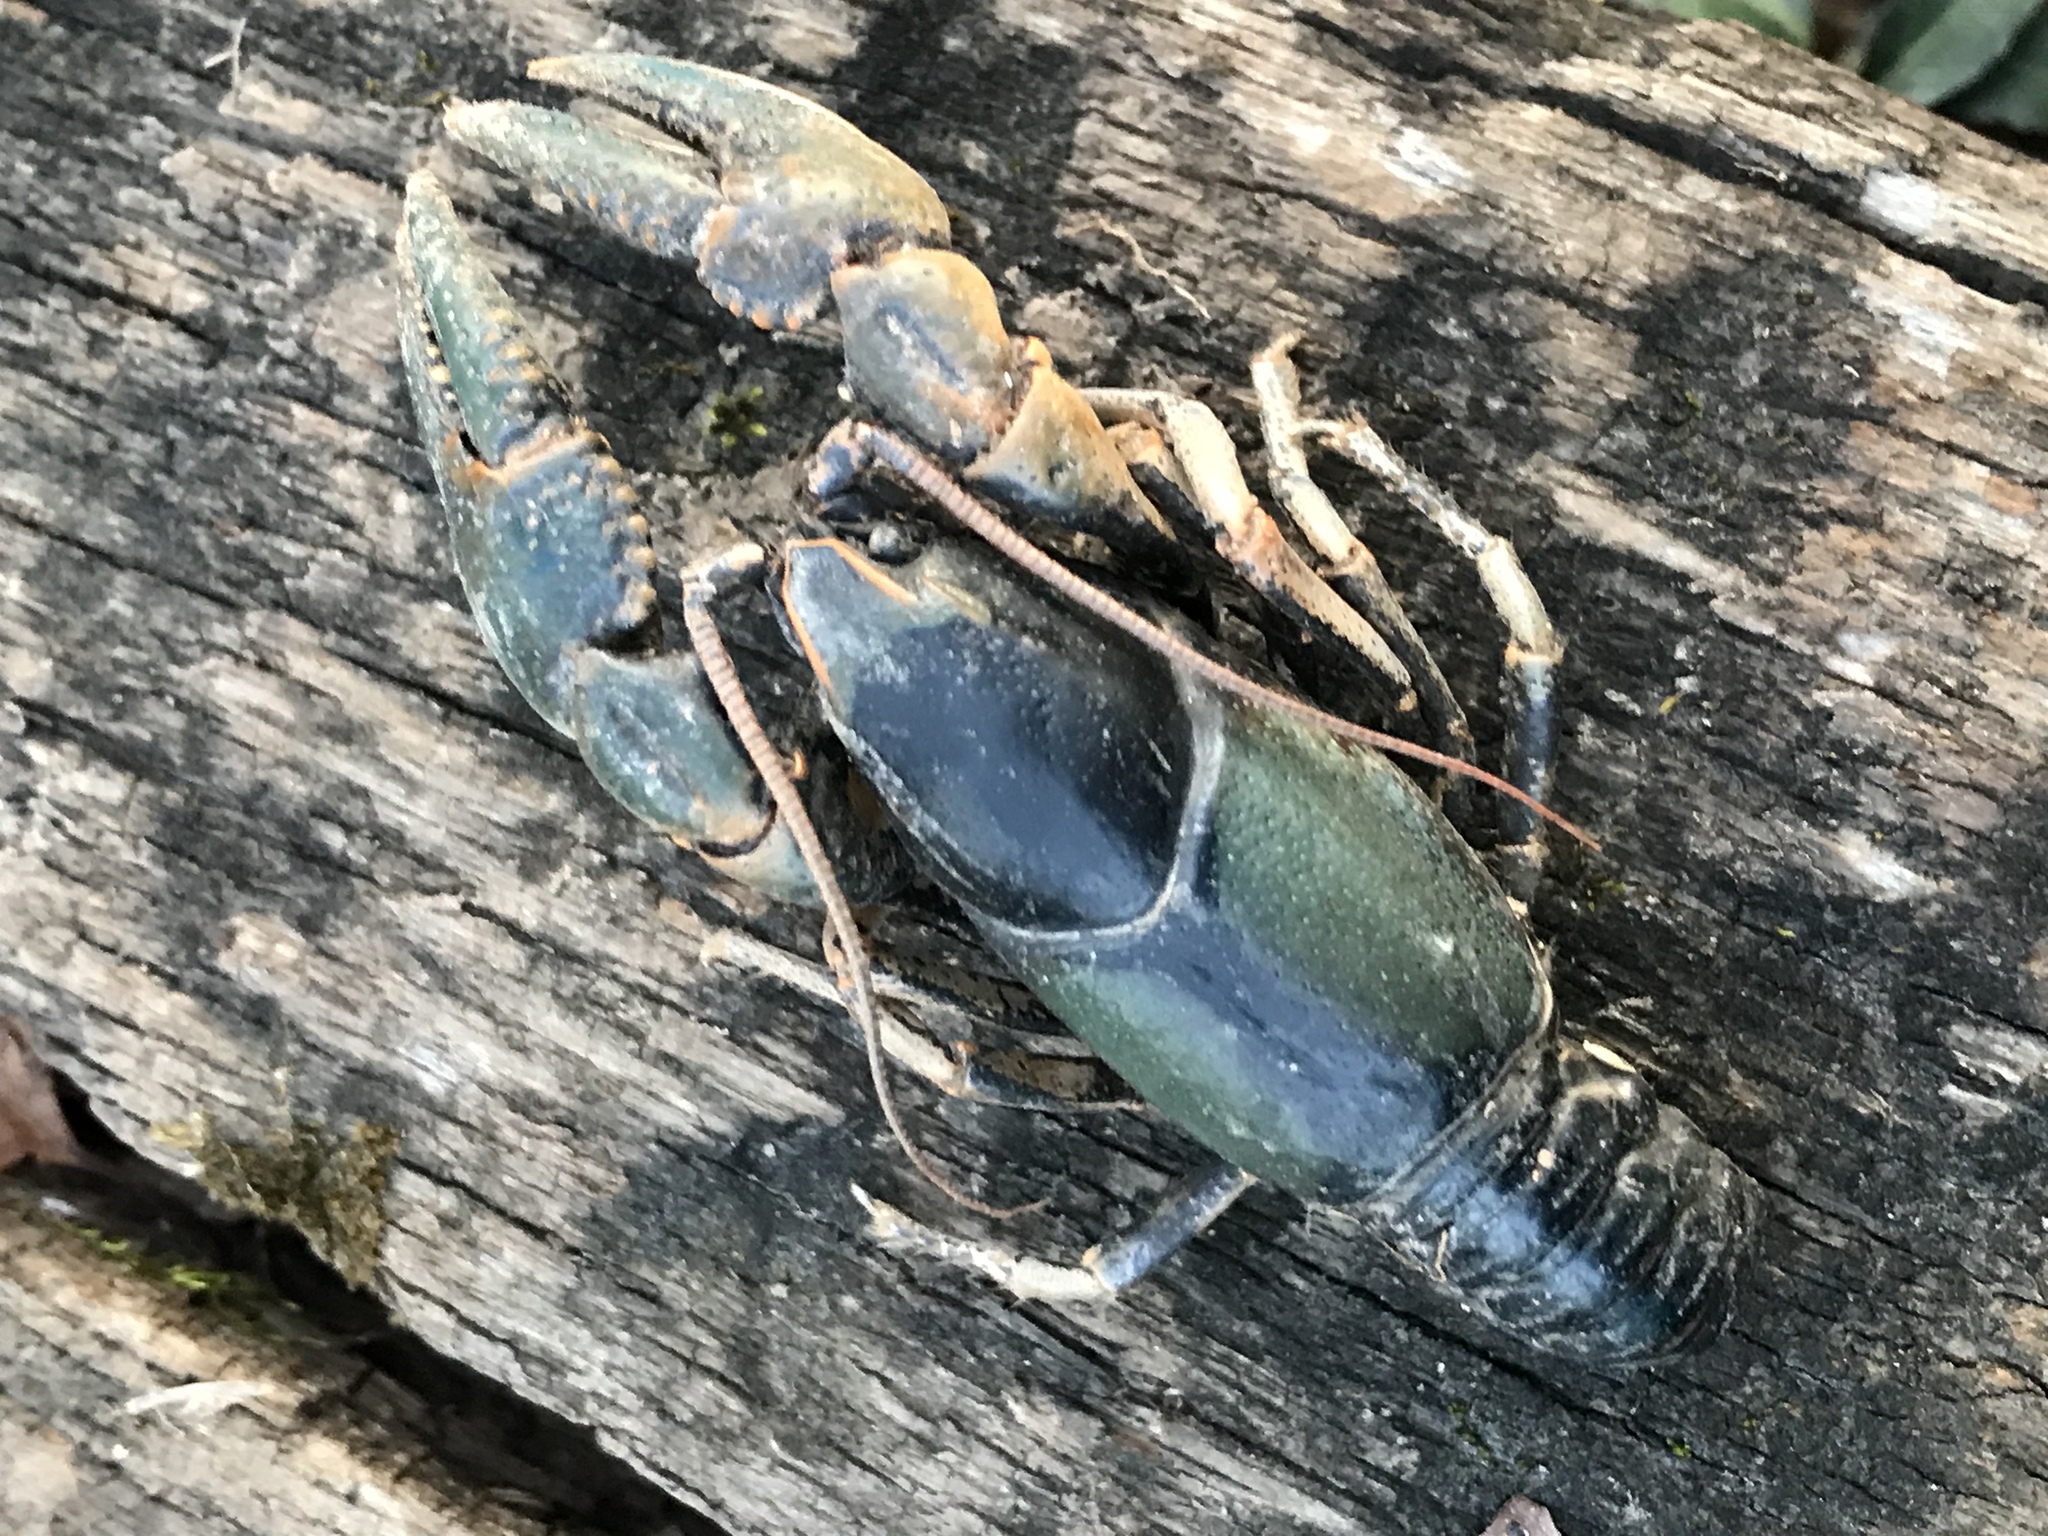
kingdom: Animalia
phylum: Arthropoda
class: Malacostraca
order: Decapoda
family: Cambaridae
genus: Cambarus
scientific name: Cambarus gentryi
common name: Linear cobalt crayfish
